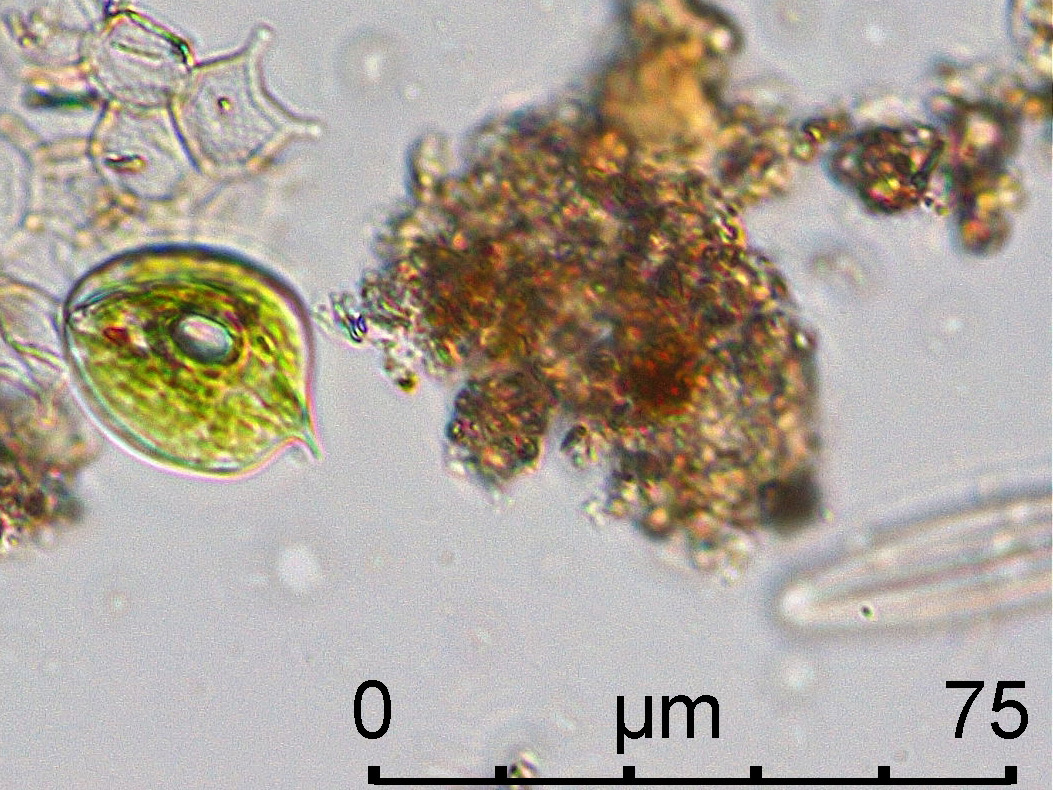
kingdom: Protozoa
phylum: Euglenozoa
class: Euglenoidea
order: Euglenida
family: Phacidae
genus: Phacus
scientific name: Phacus triqueter
